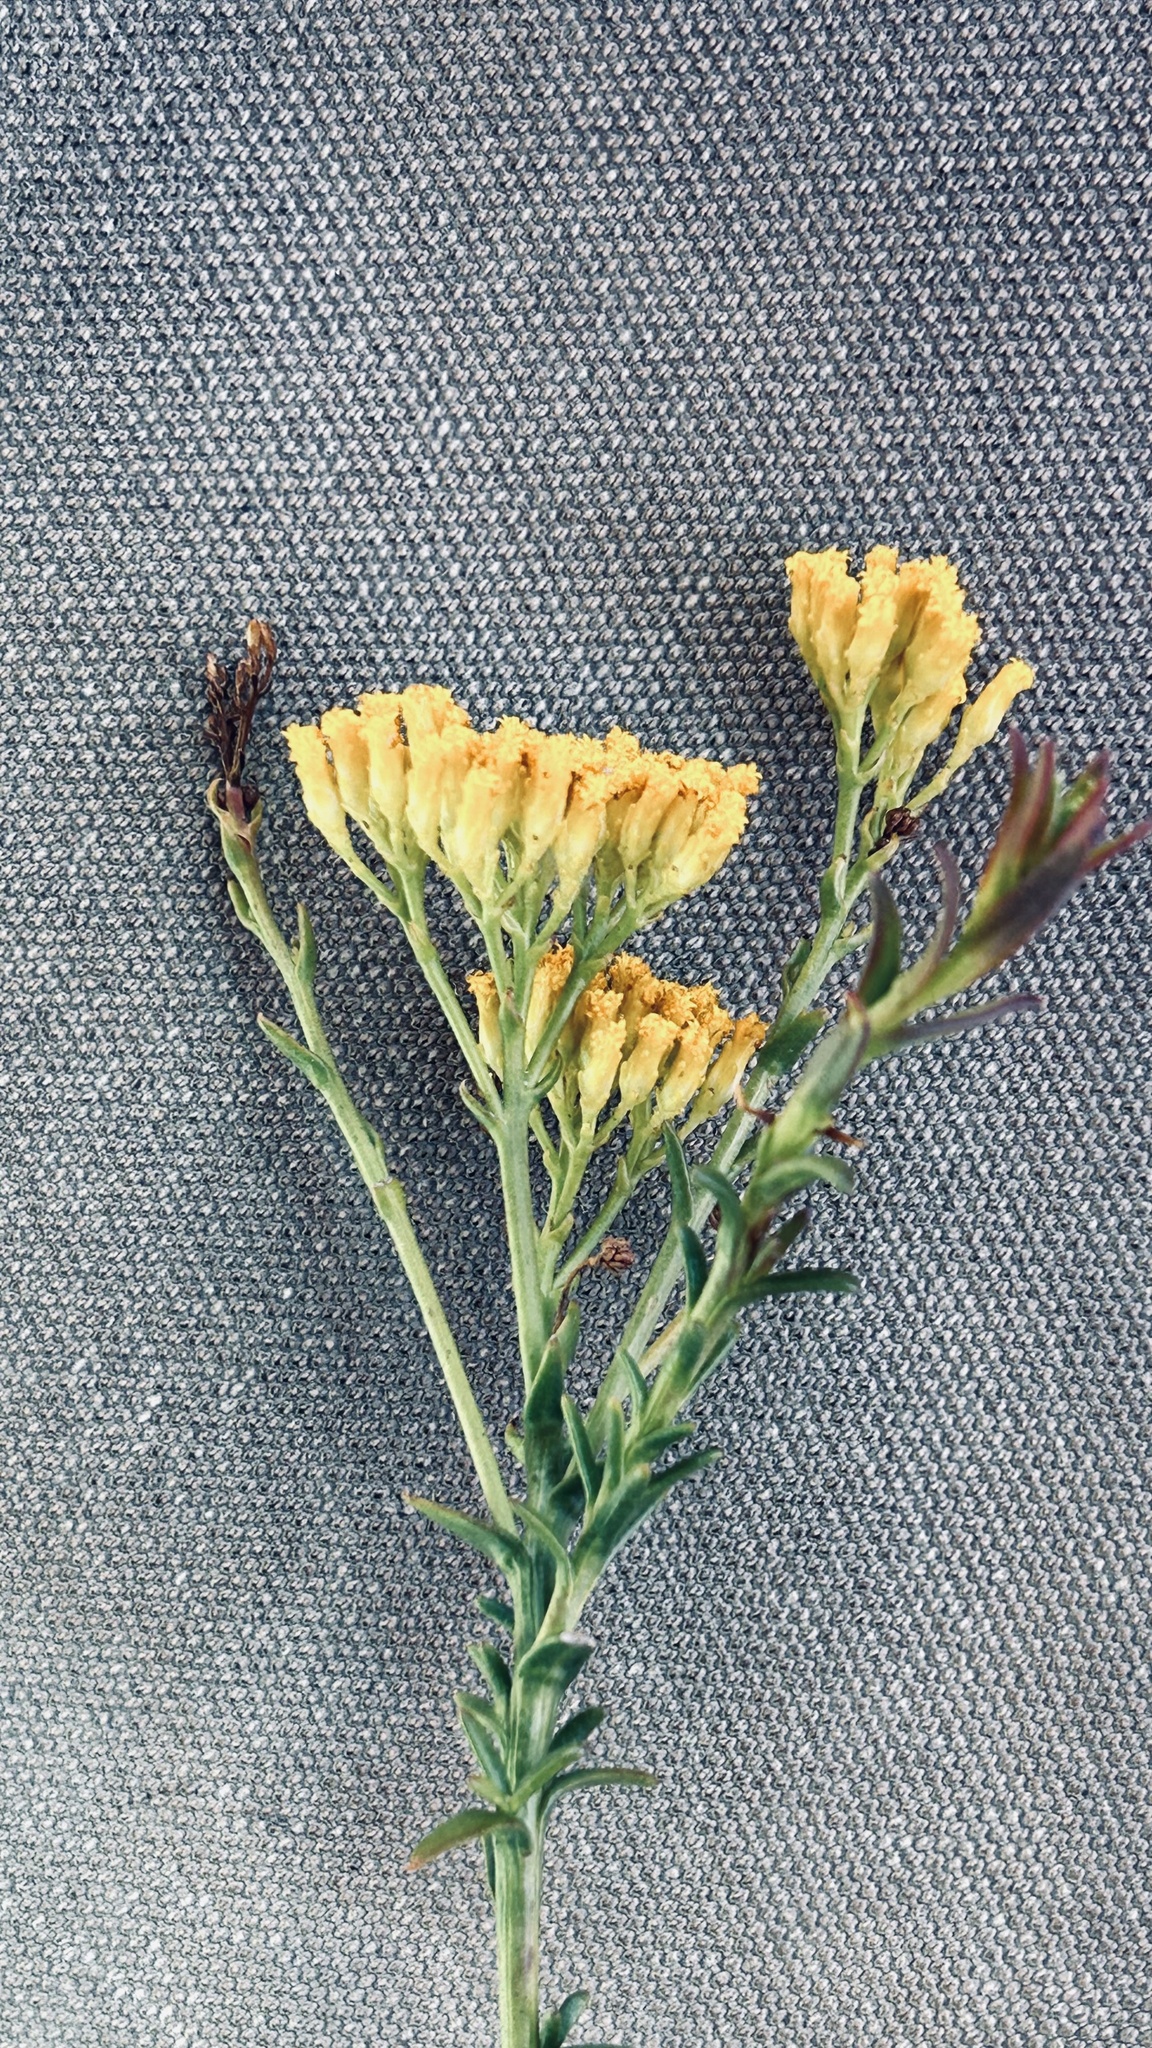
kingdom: Plantae
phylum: Tracheophyta
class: Magnoliopsida
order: Asterales
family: Asteraceae
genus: Athanasia
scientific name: Athanasia juncea
